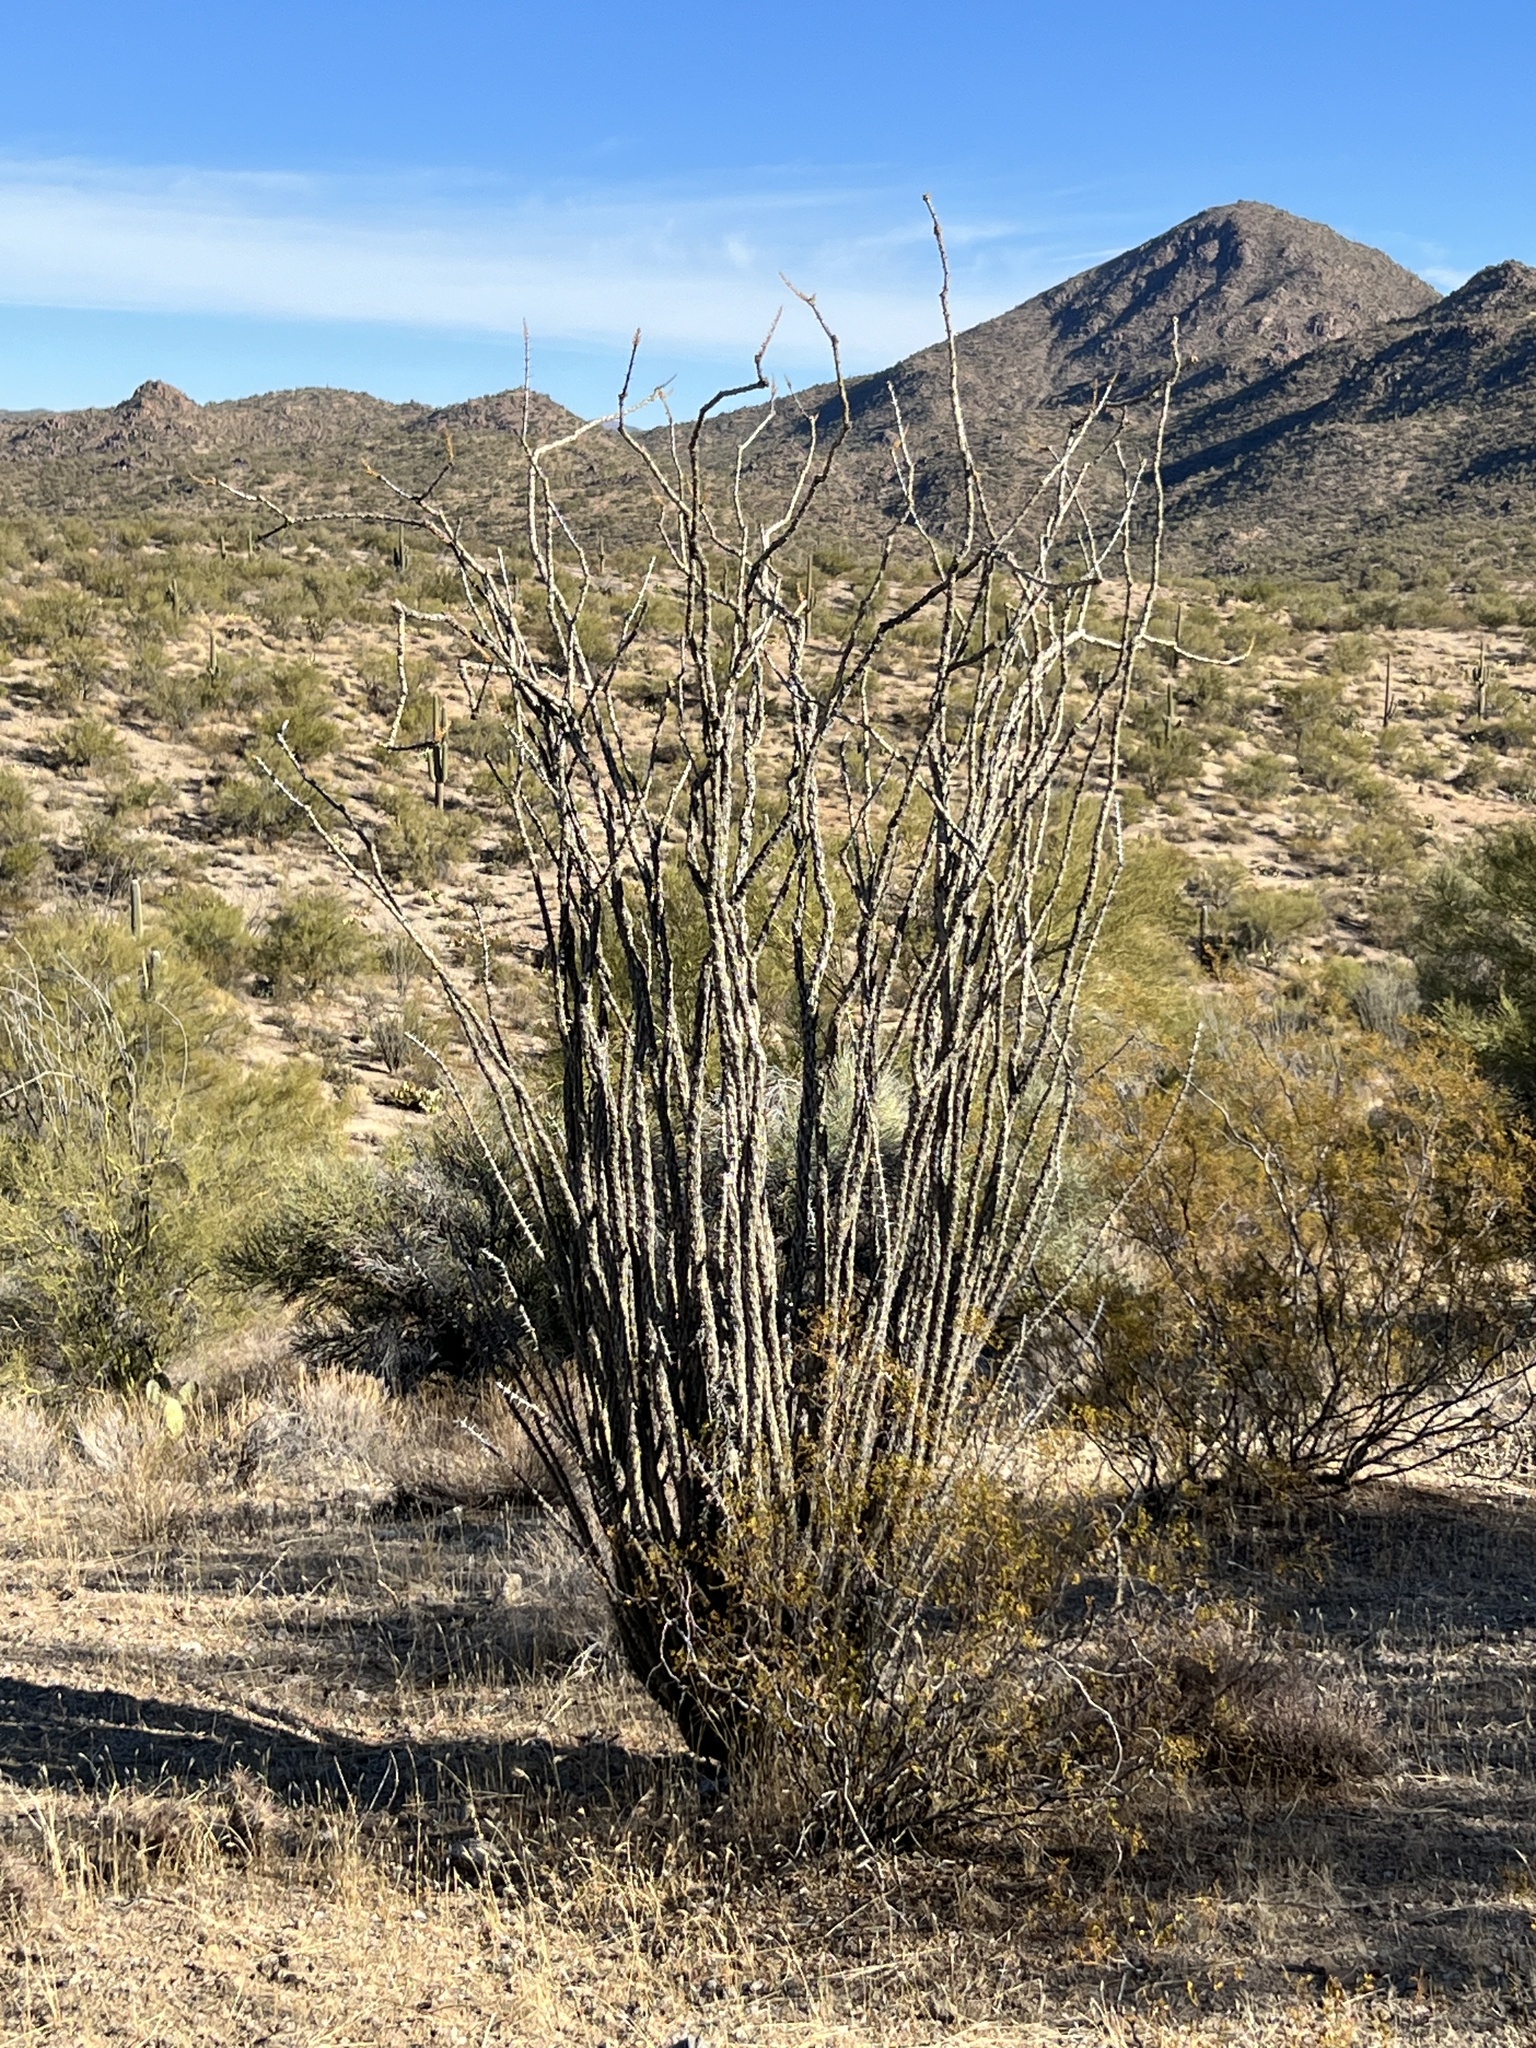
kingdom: Plantae
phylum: Tracheophyta
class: Magnoliopsida
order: Ericales
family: Fouquieriaceae
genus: Fouquieria
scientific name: Fouquieria splendens
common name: Vine-cactus
